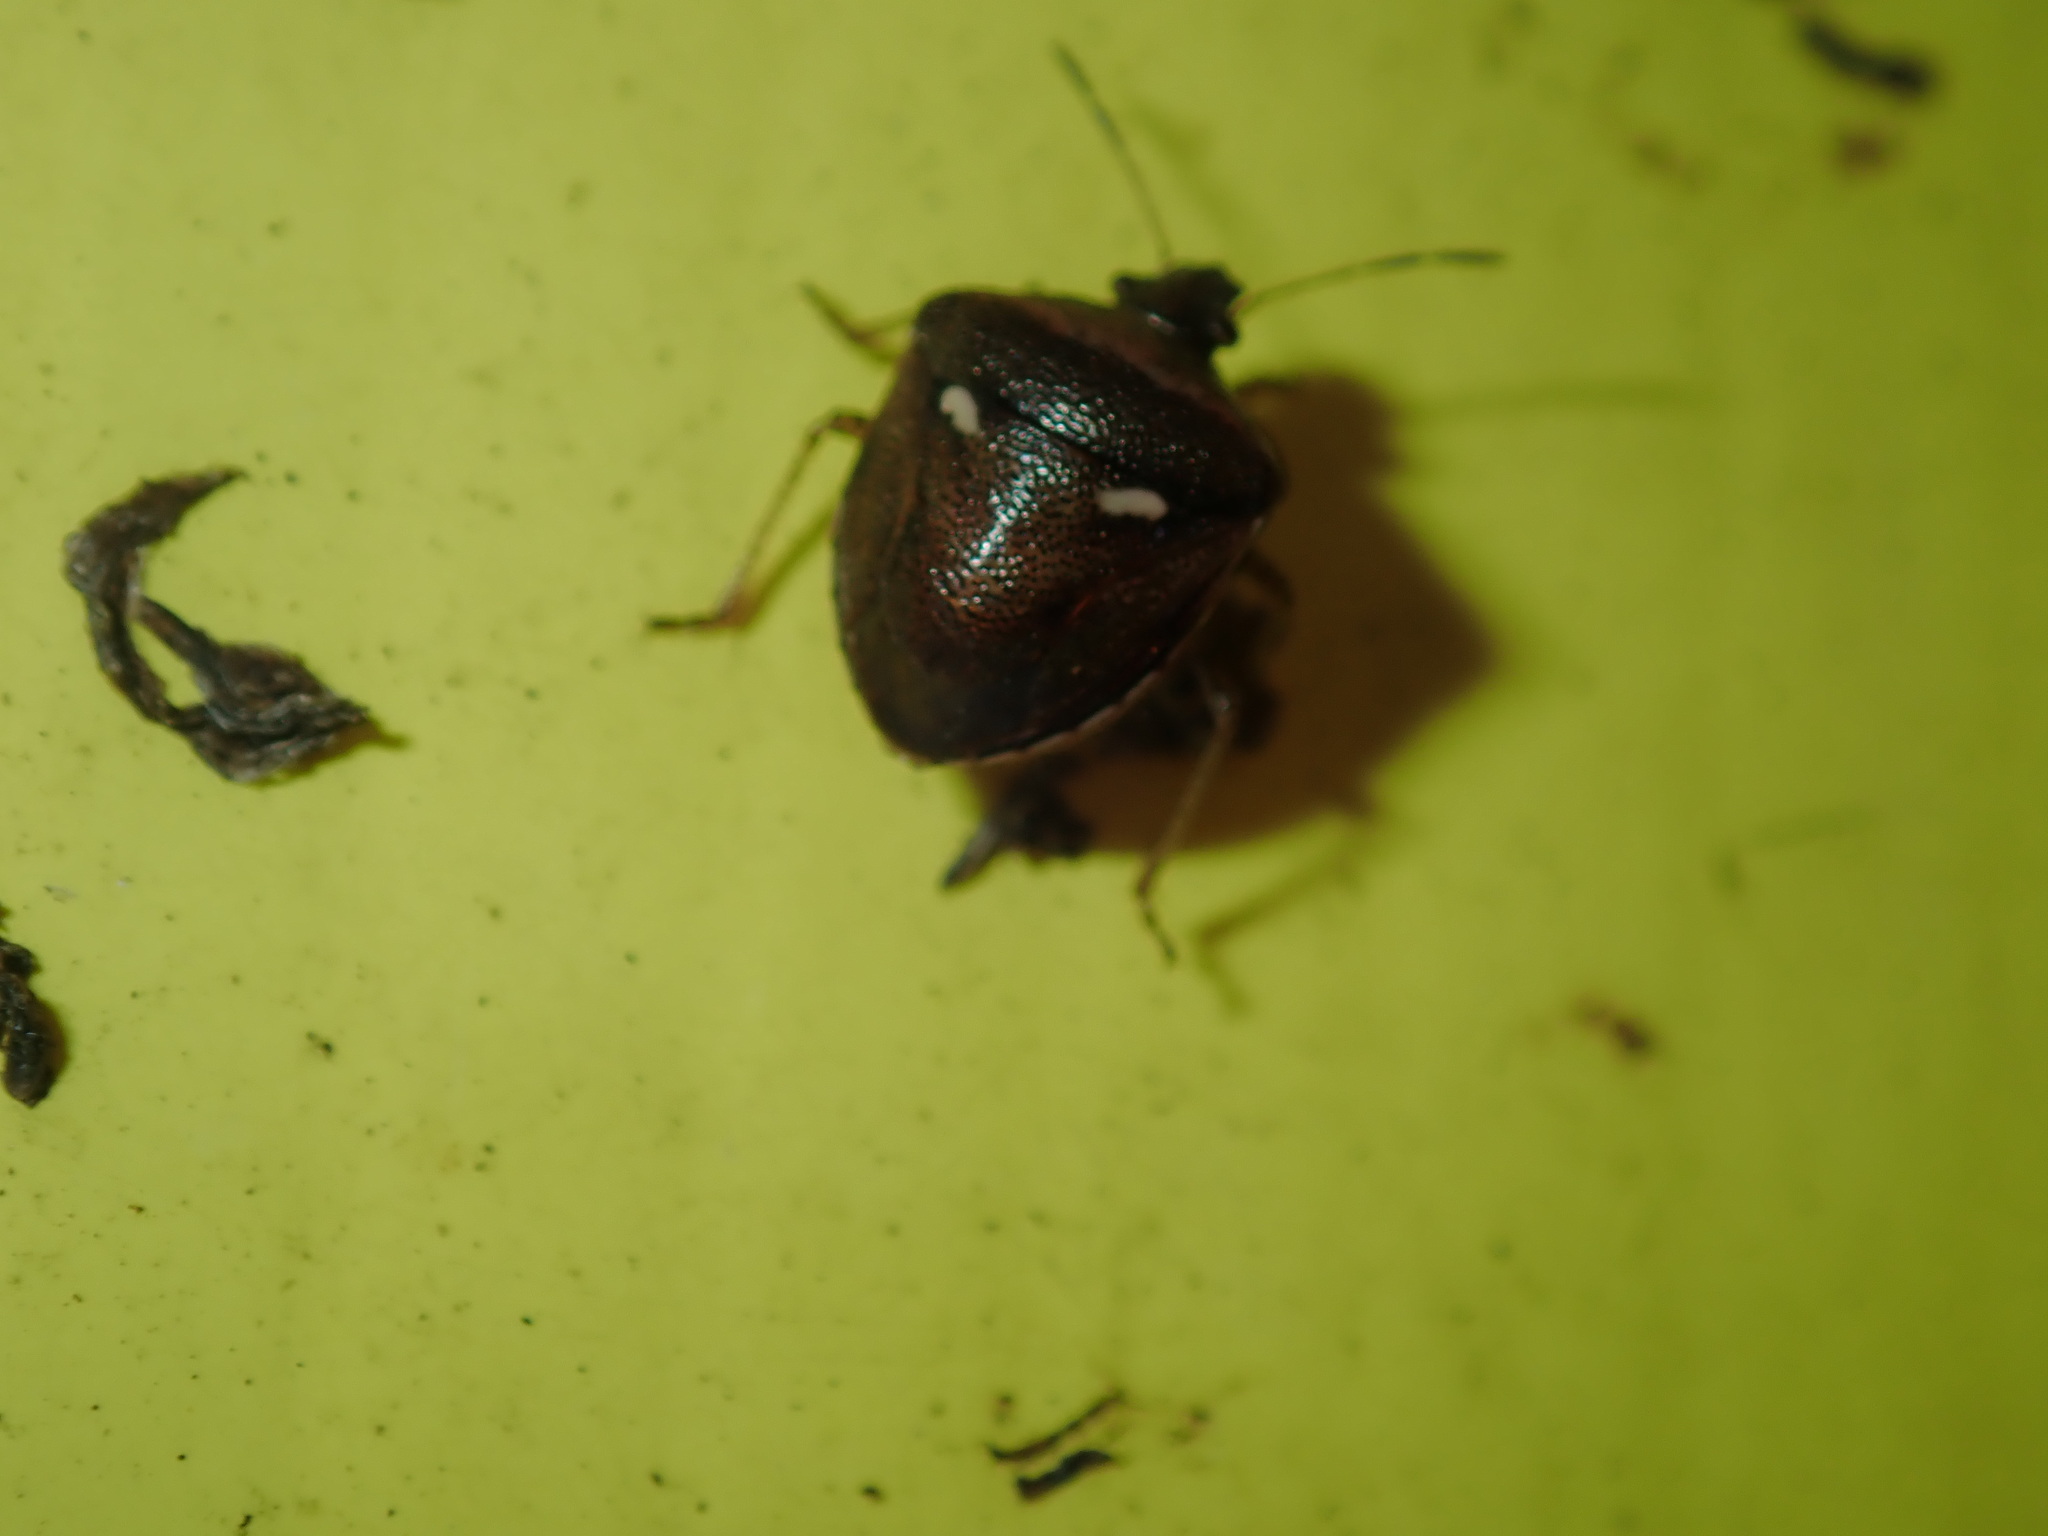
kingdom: Animalia
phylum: Arthropoda
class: Insecta
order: Hemiptera
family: Pentatomidae
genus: Eysarcoris
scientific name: Eysarcoris
